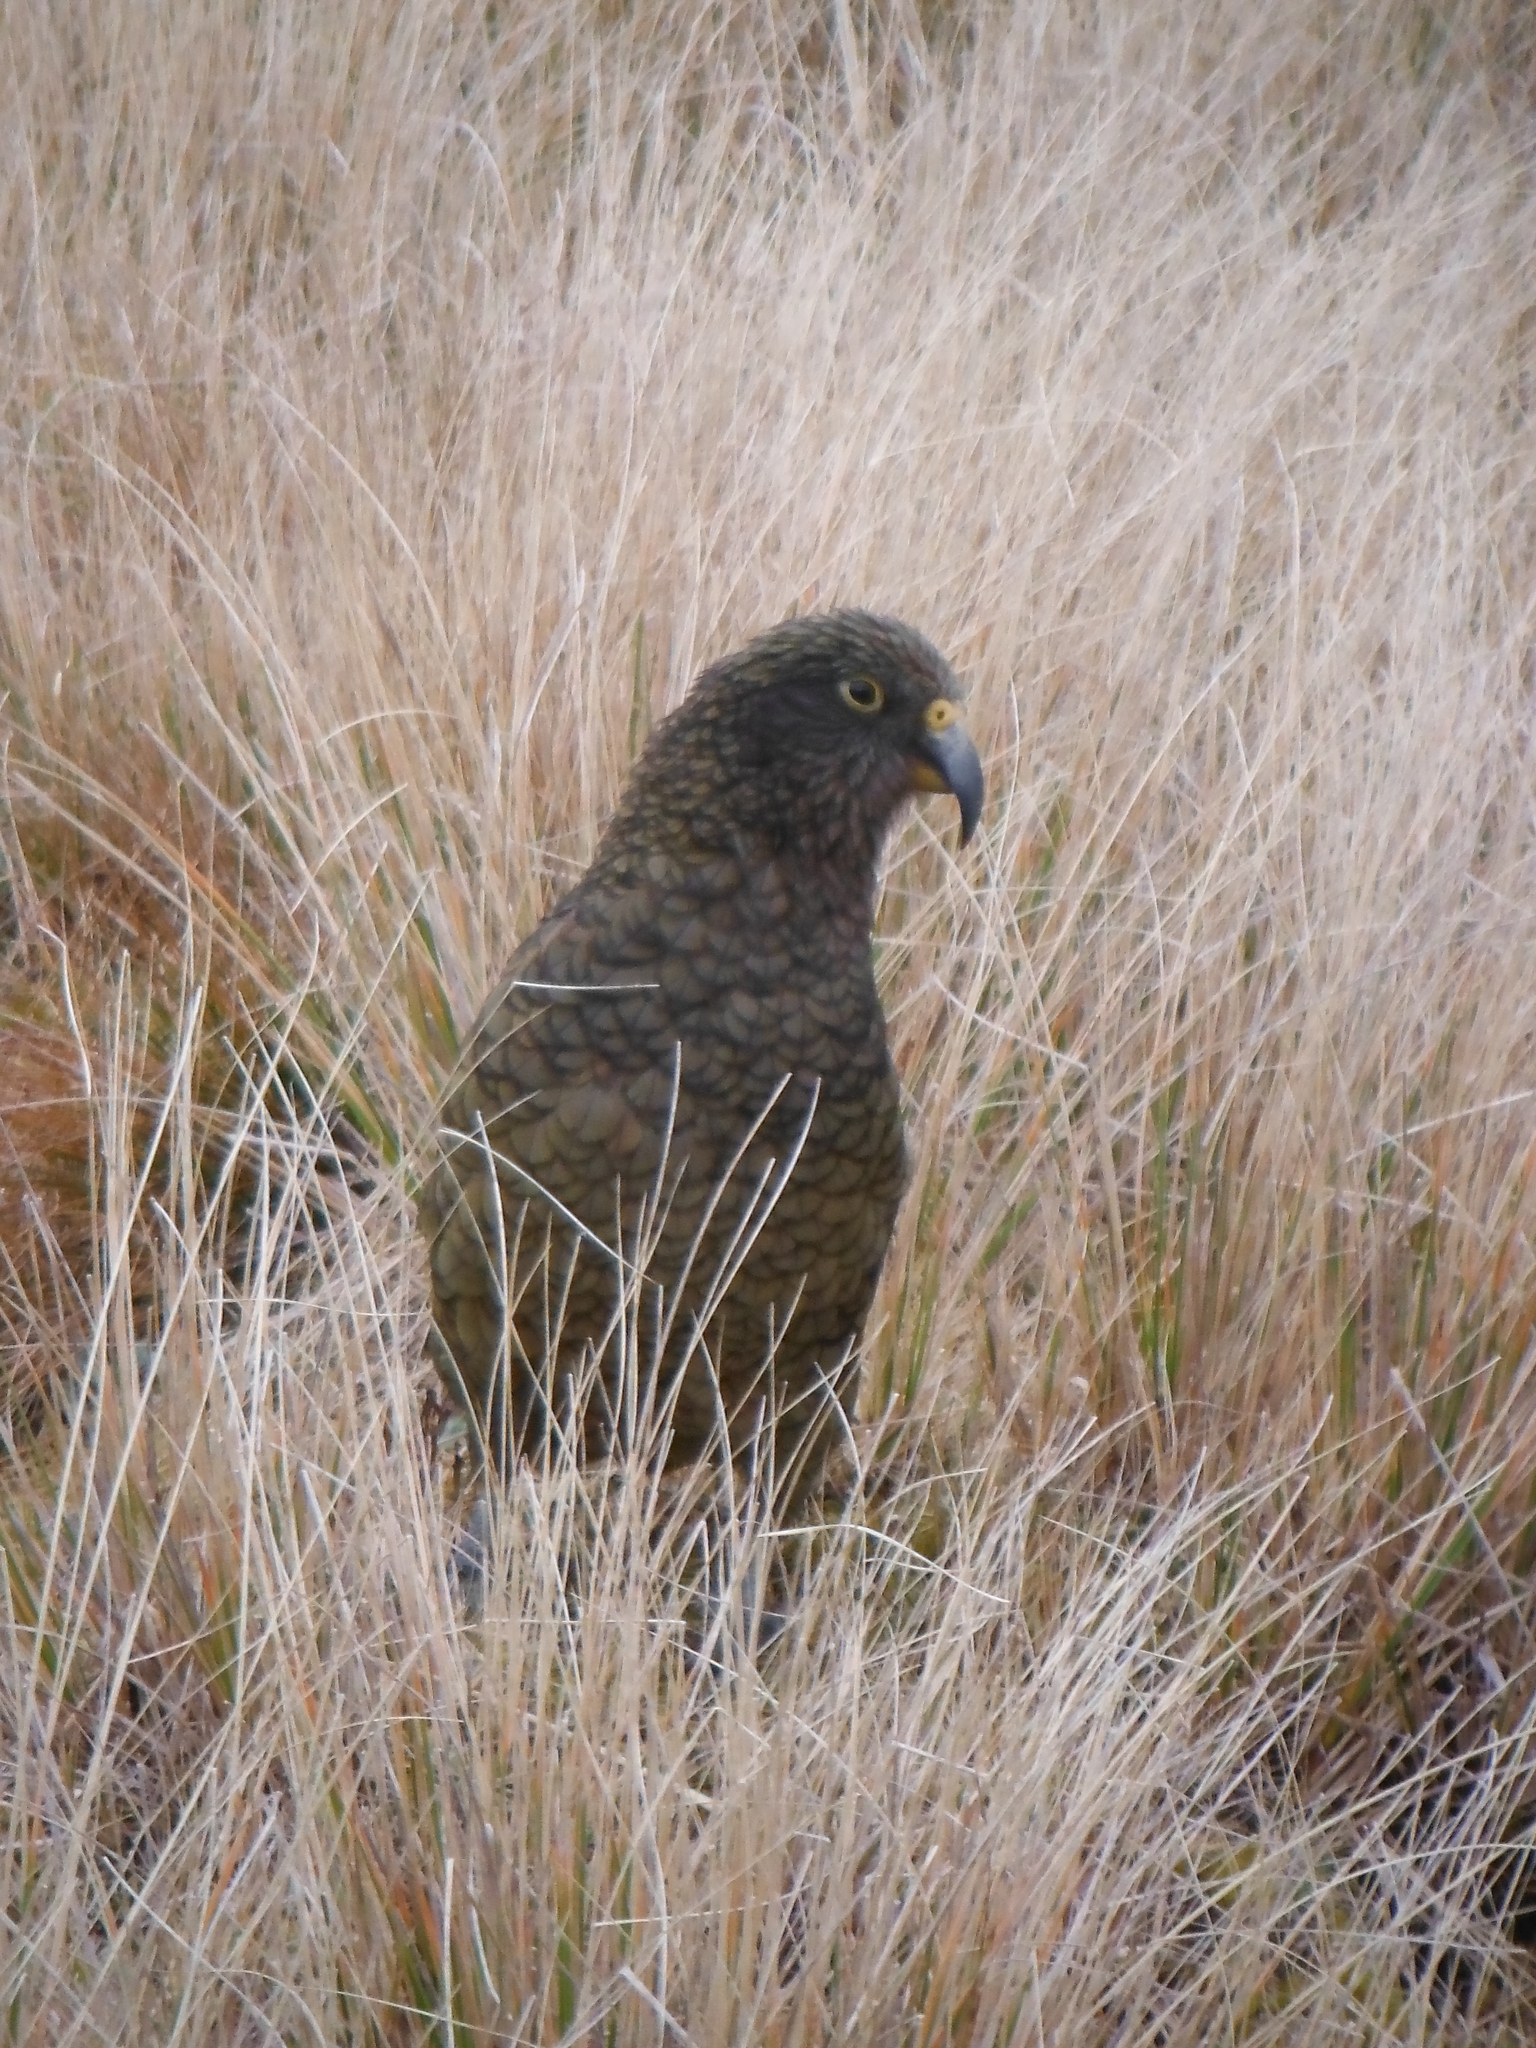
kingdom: Animalia
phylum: Chordata
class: Aves
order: Psittaciformes
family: Psittacidae
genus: Nestor
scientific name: Nestor notabilis
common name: Kea
